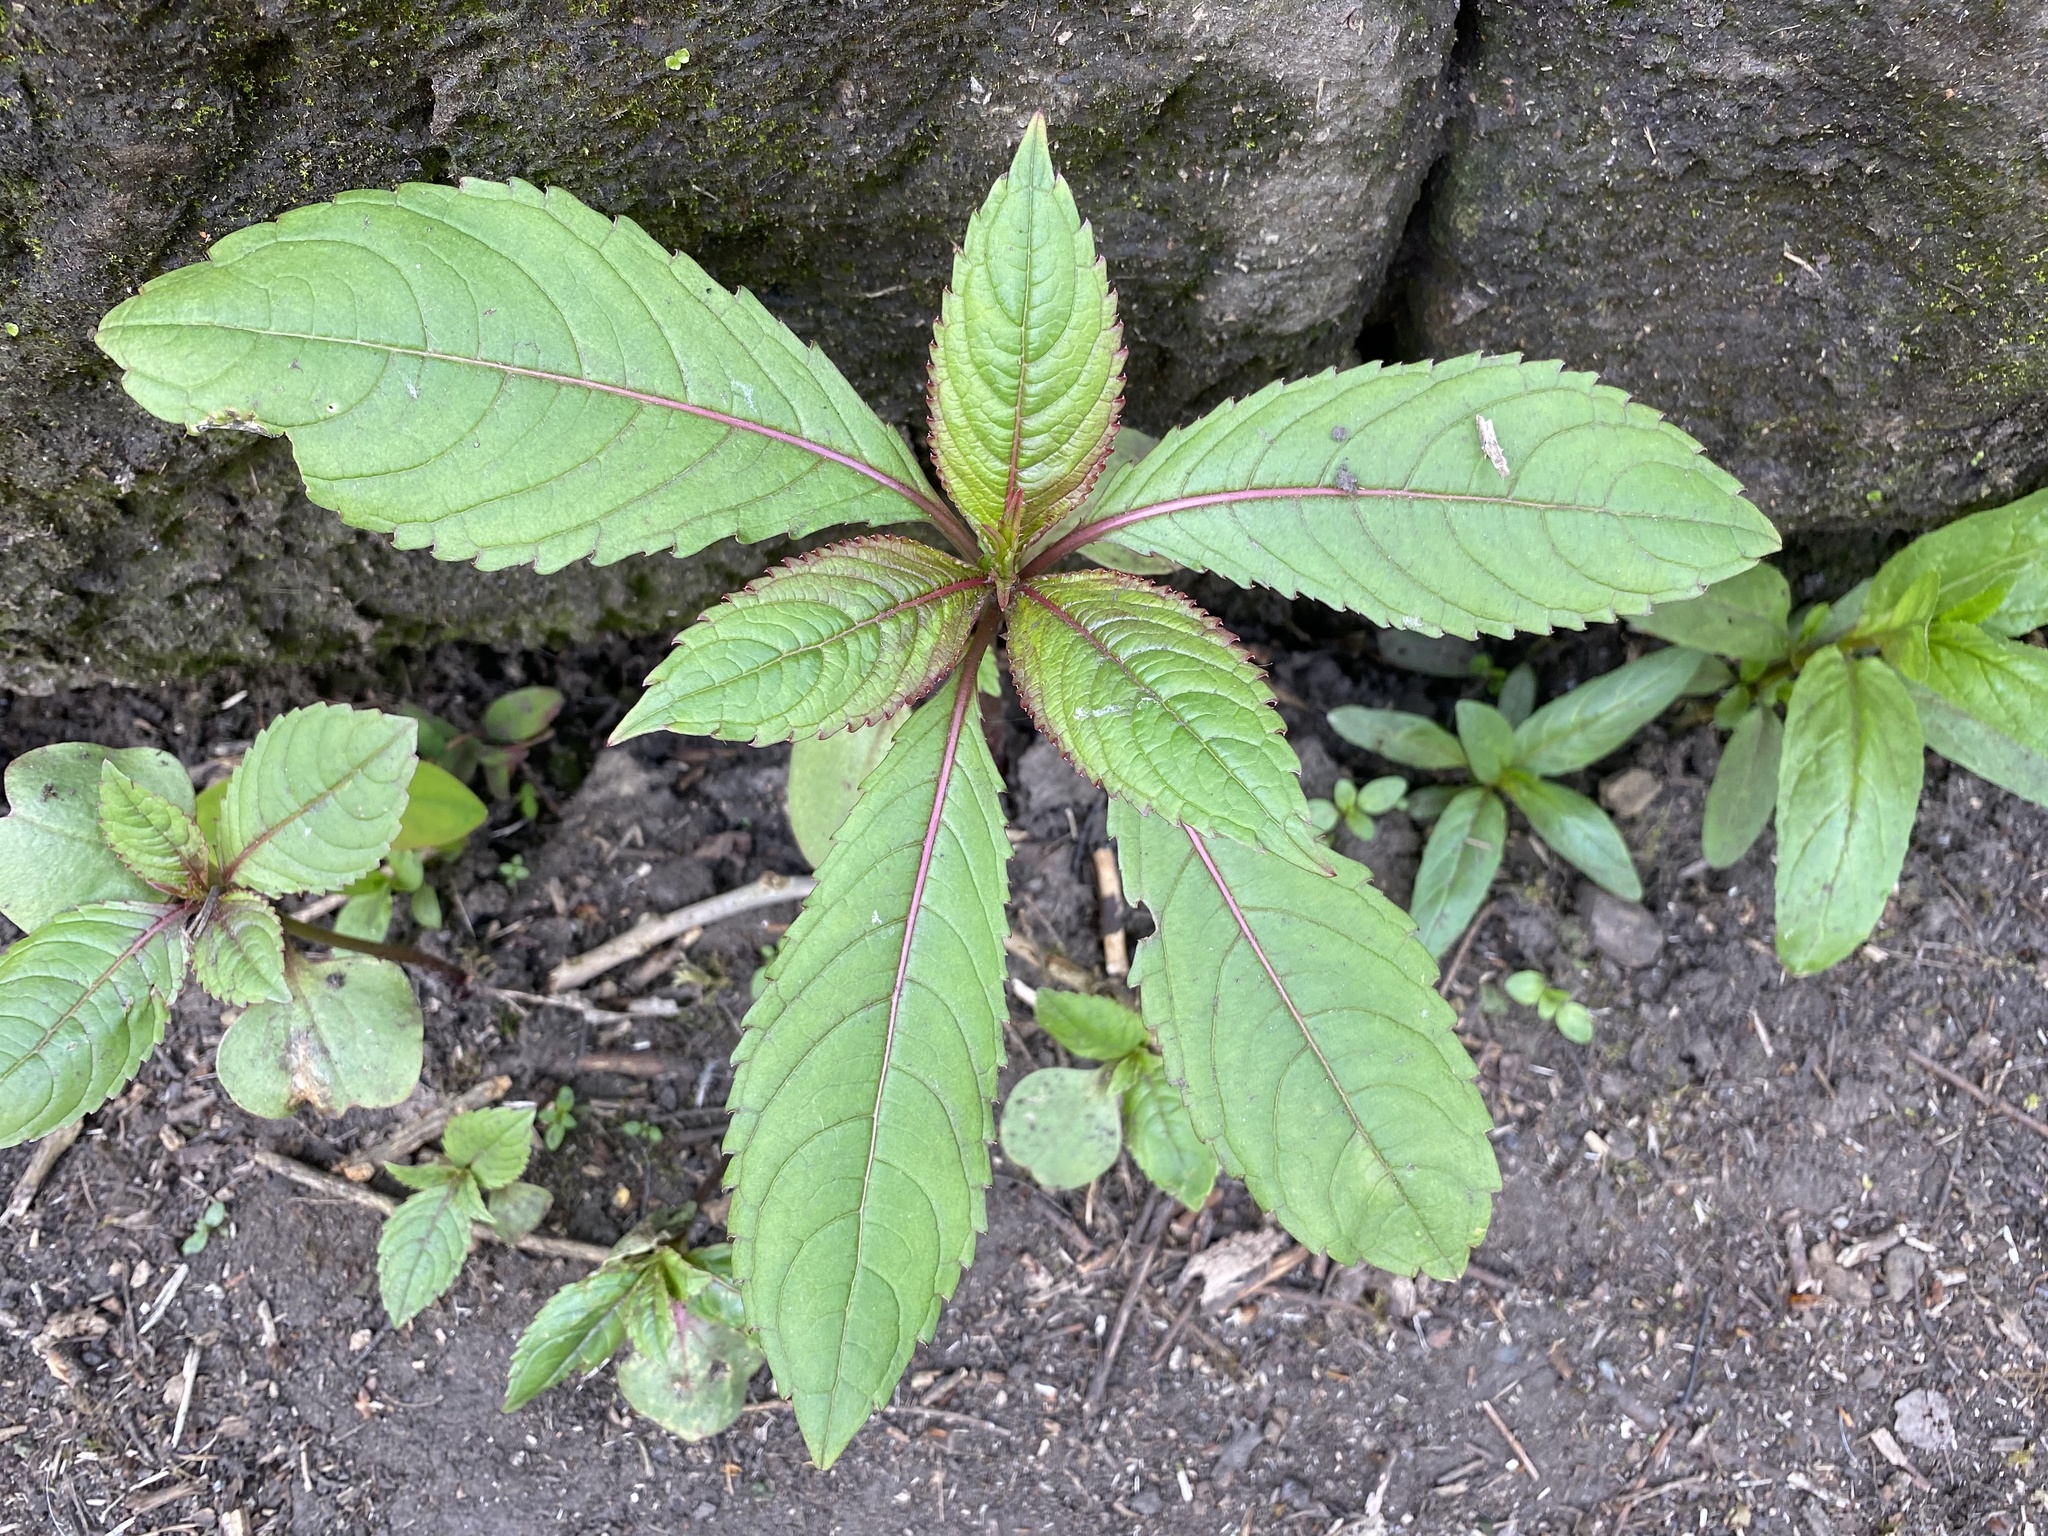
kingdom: Plantae
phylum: Tracheophyta
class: Magnoliopsida
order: Ericales
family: Balsaminaceae
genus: Impatiens
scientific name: Impatiens glandulifera
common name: Himalayan balsam
